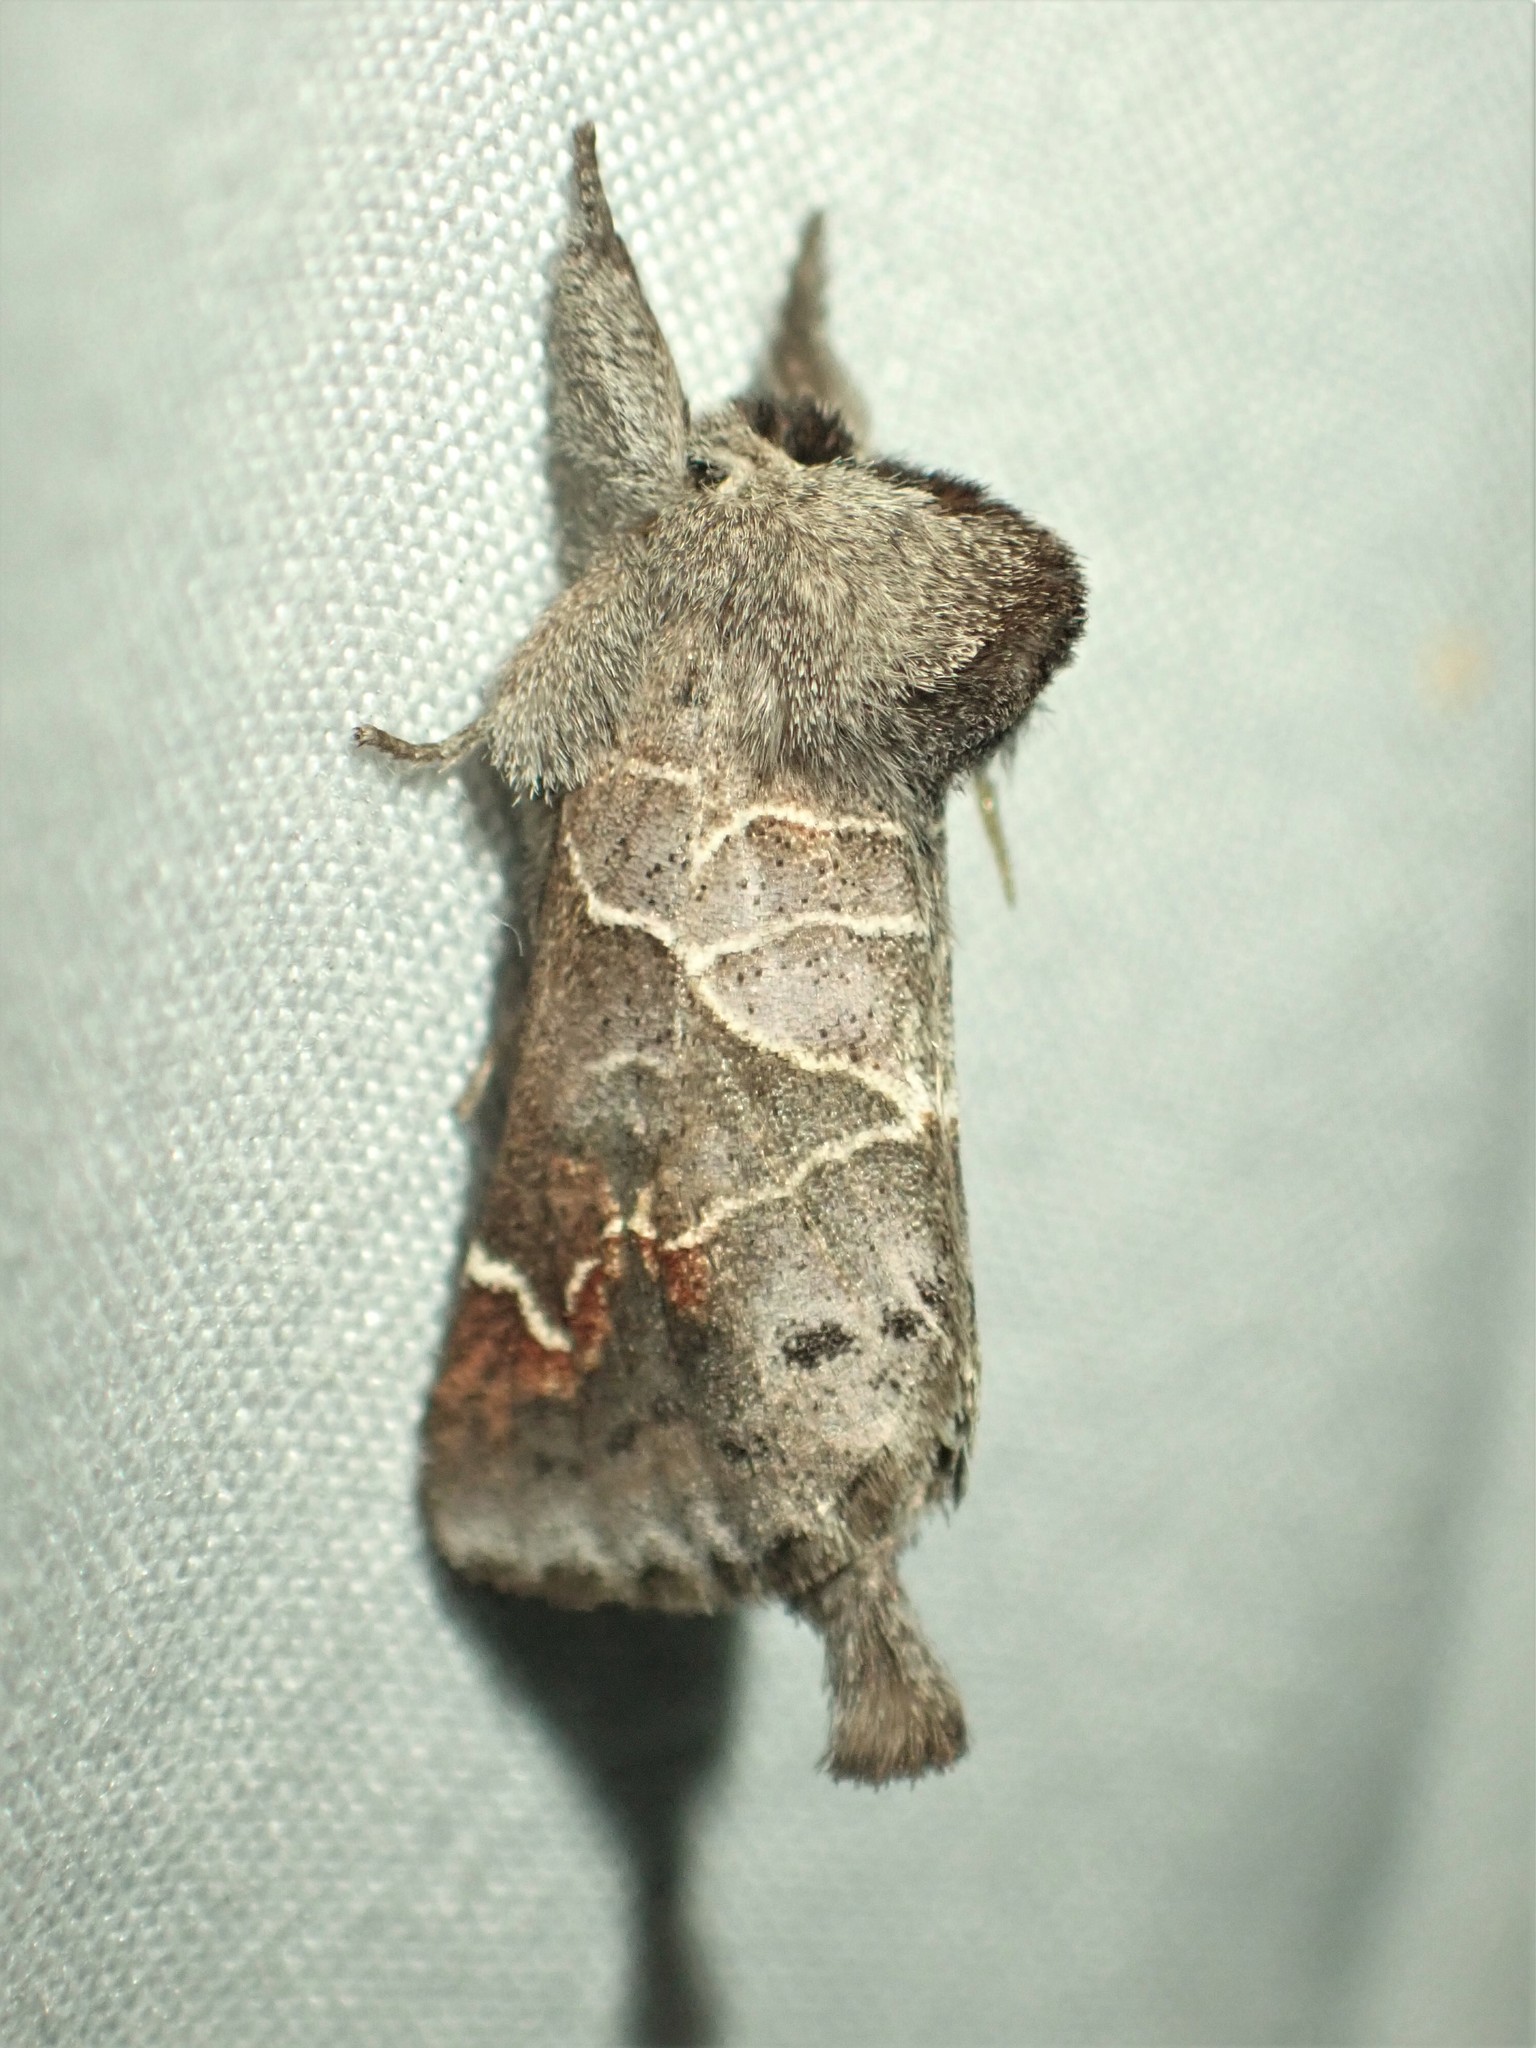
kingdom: Animalia
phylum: Arthropoda
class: Insecta
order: Lepidoptera
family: Notodontidae
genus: Clostera
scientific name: Clostera apicalis
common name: Apical prominent
